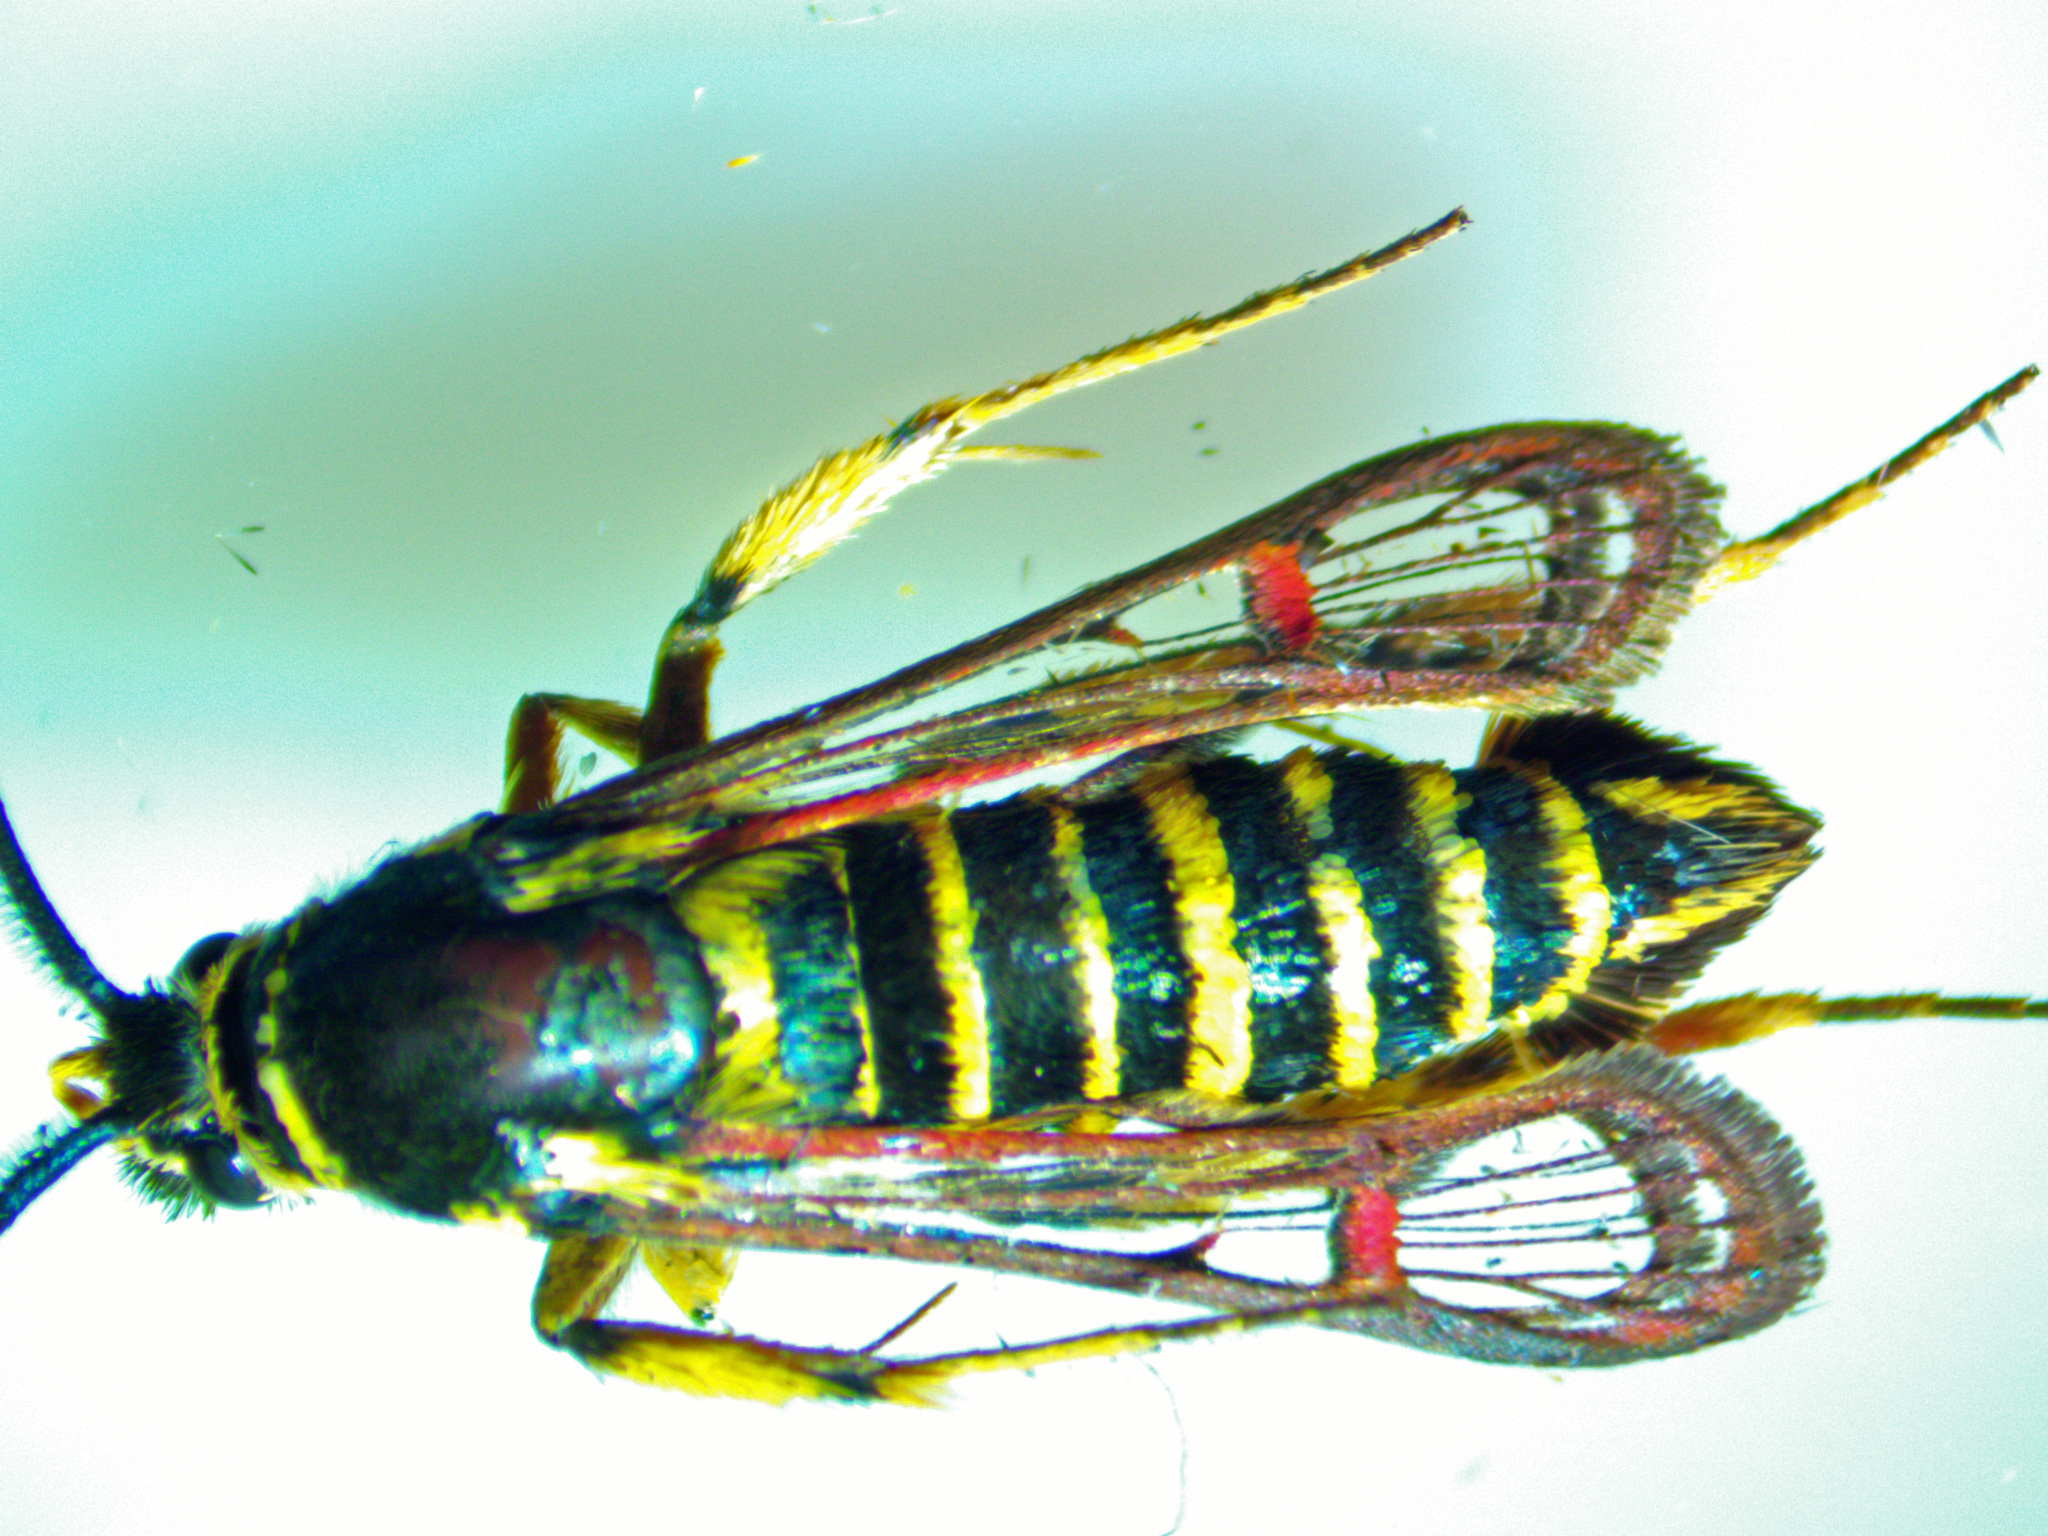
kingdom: Animalia
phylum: Arthropoda
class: Insecta
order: Lepidoptera
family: Sesiidae
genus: Synanthedon
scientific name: Synanthedon rileyana
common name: Riley's clearwing moth
